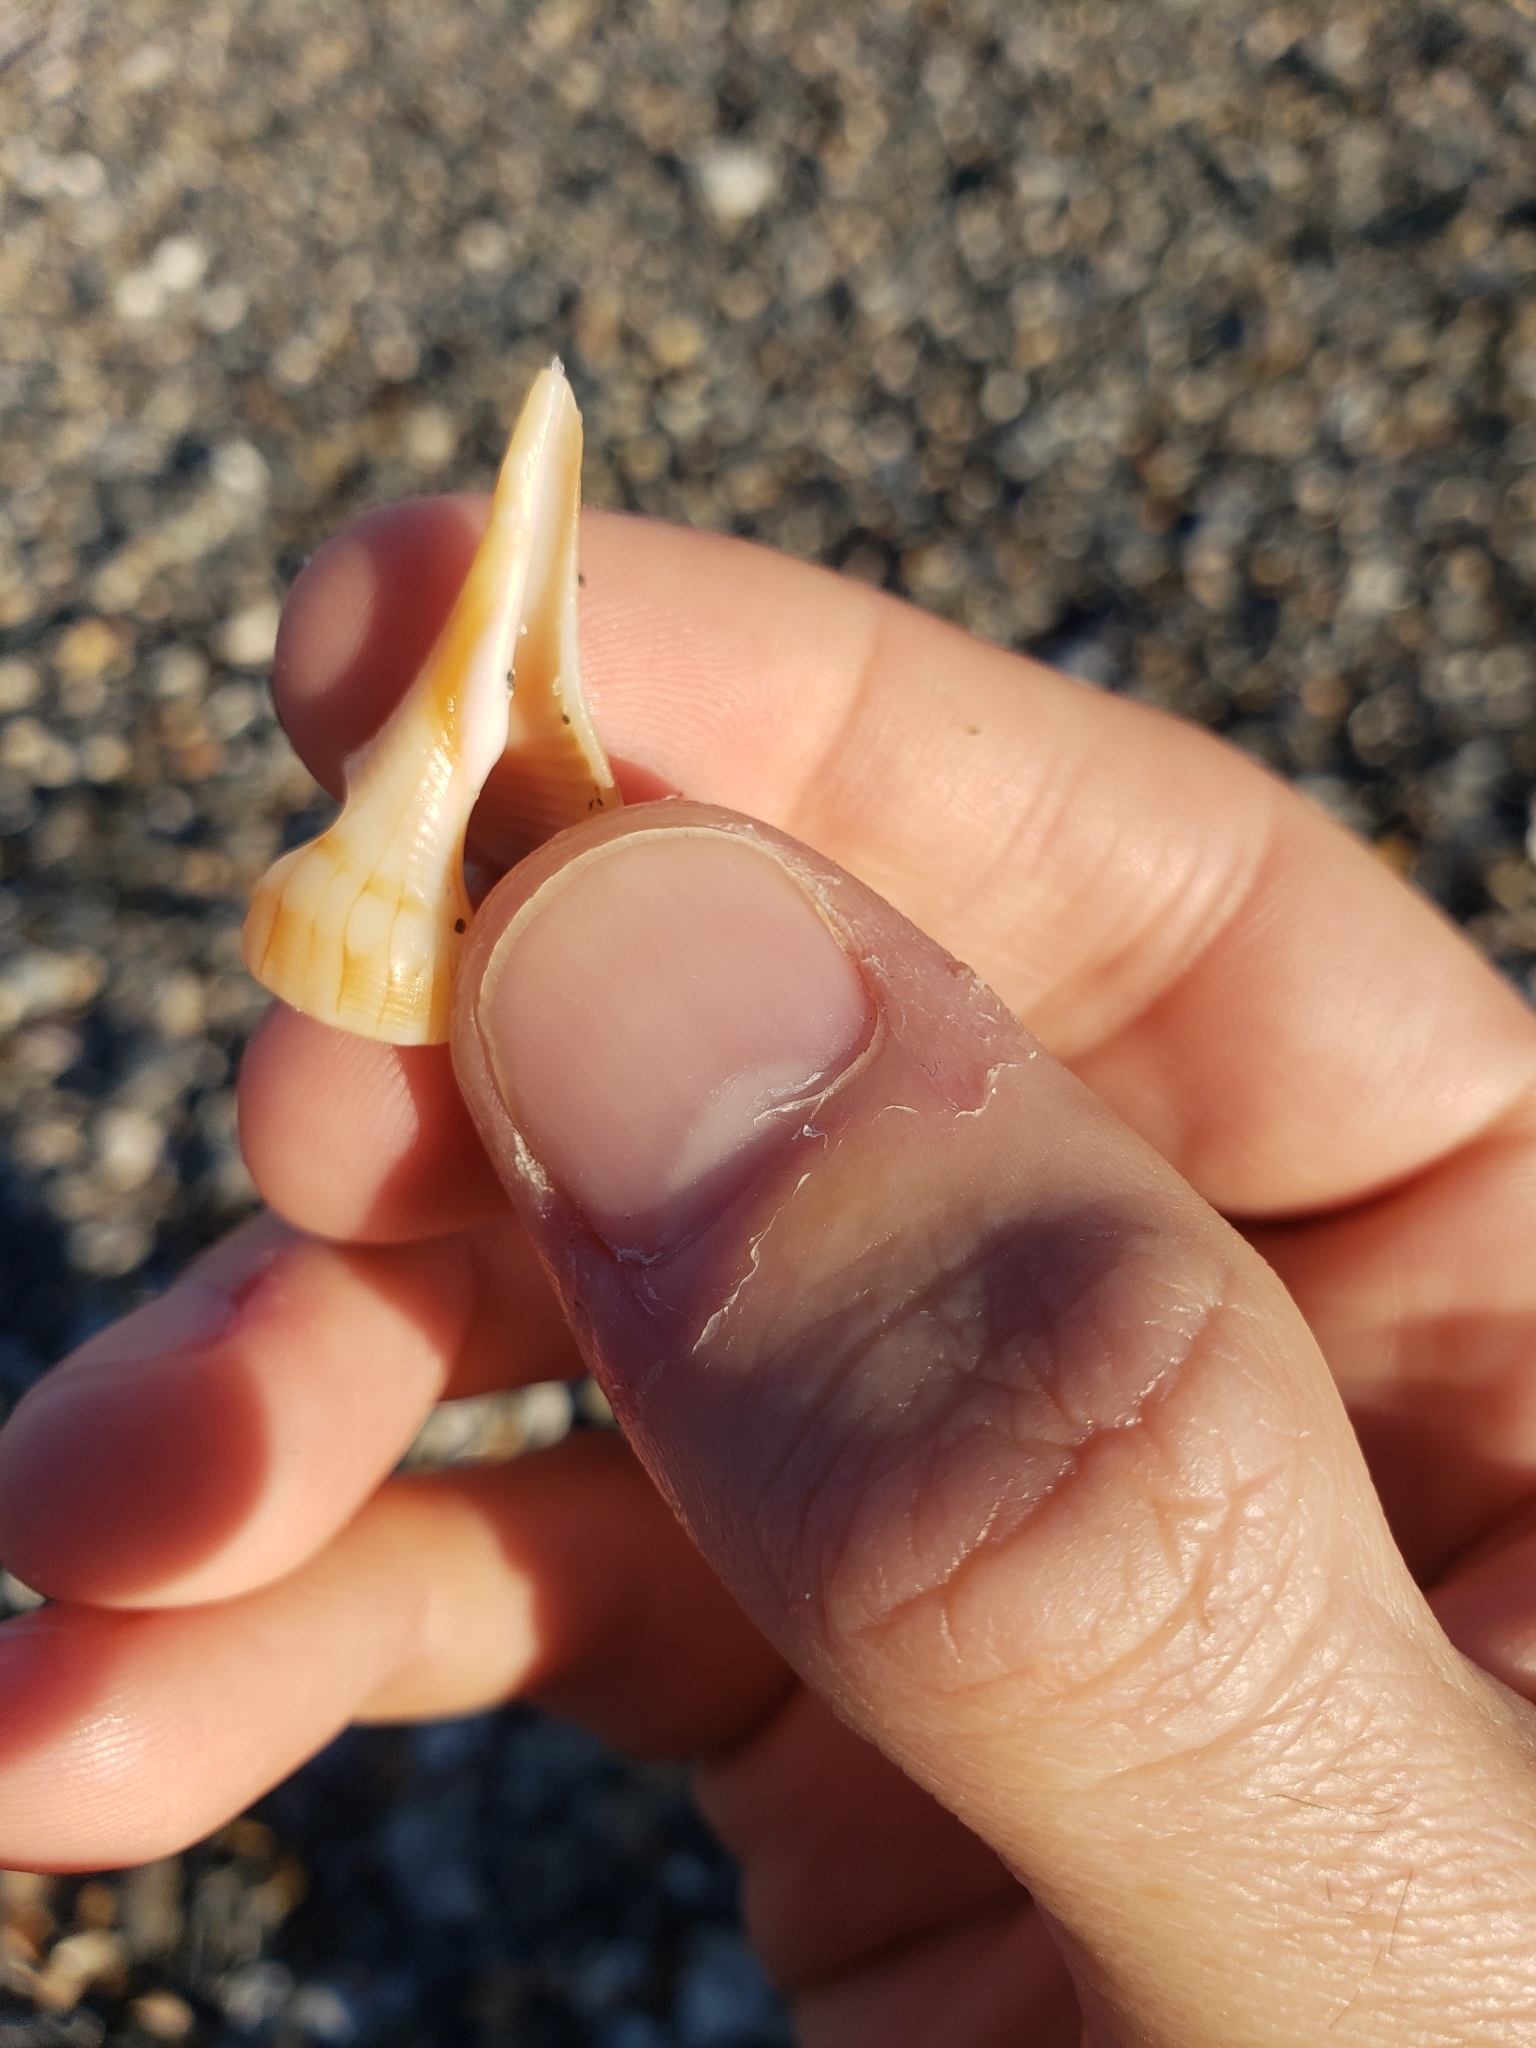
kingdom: Animalia
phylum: Mollusca
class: Gastropoda
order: Neogastropoda
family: Busyconidae
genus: Sinistrofulgur
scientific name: Sinistrofulgur sinistrum
